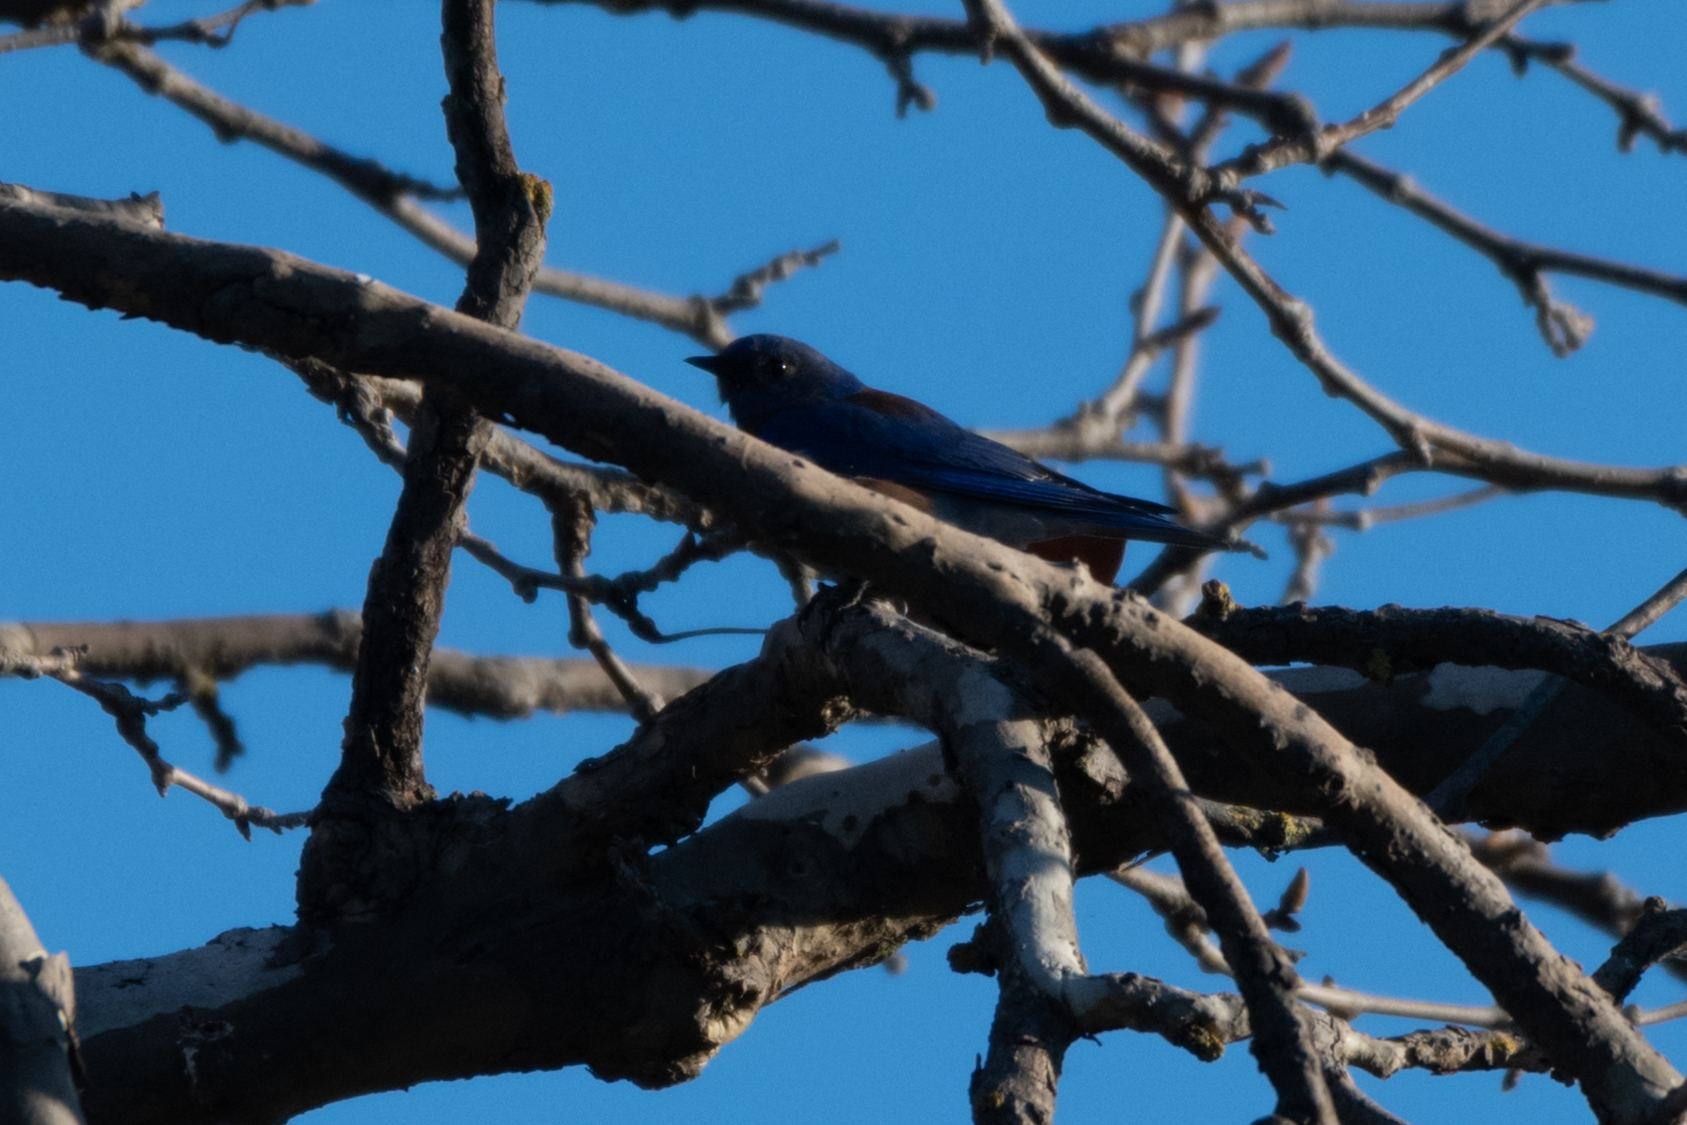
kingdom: Animalia
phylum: Chordata
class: Aves
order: Passeriformes
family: Turdidae
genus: Sialia
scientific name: Sialia mexicana
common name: Western bluebird
